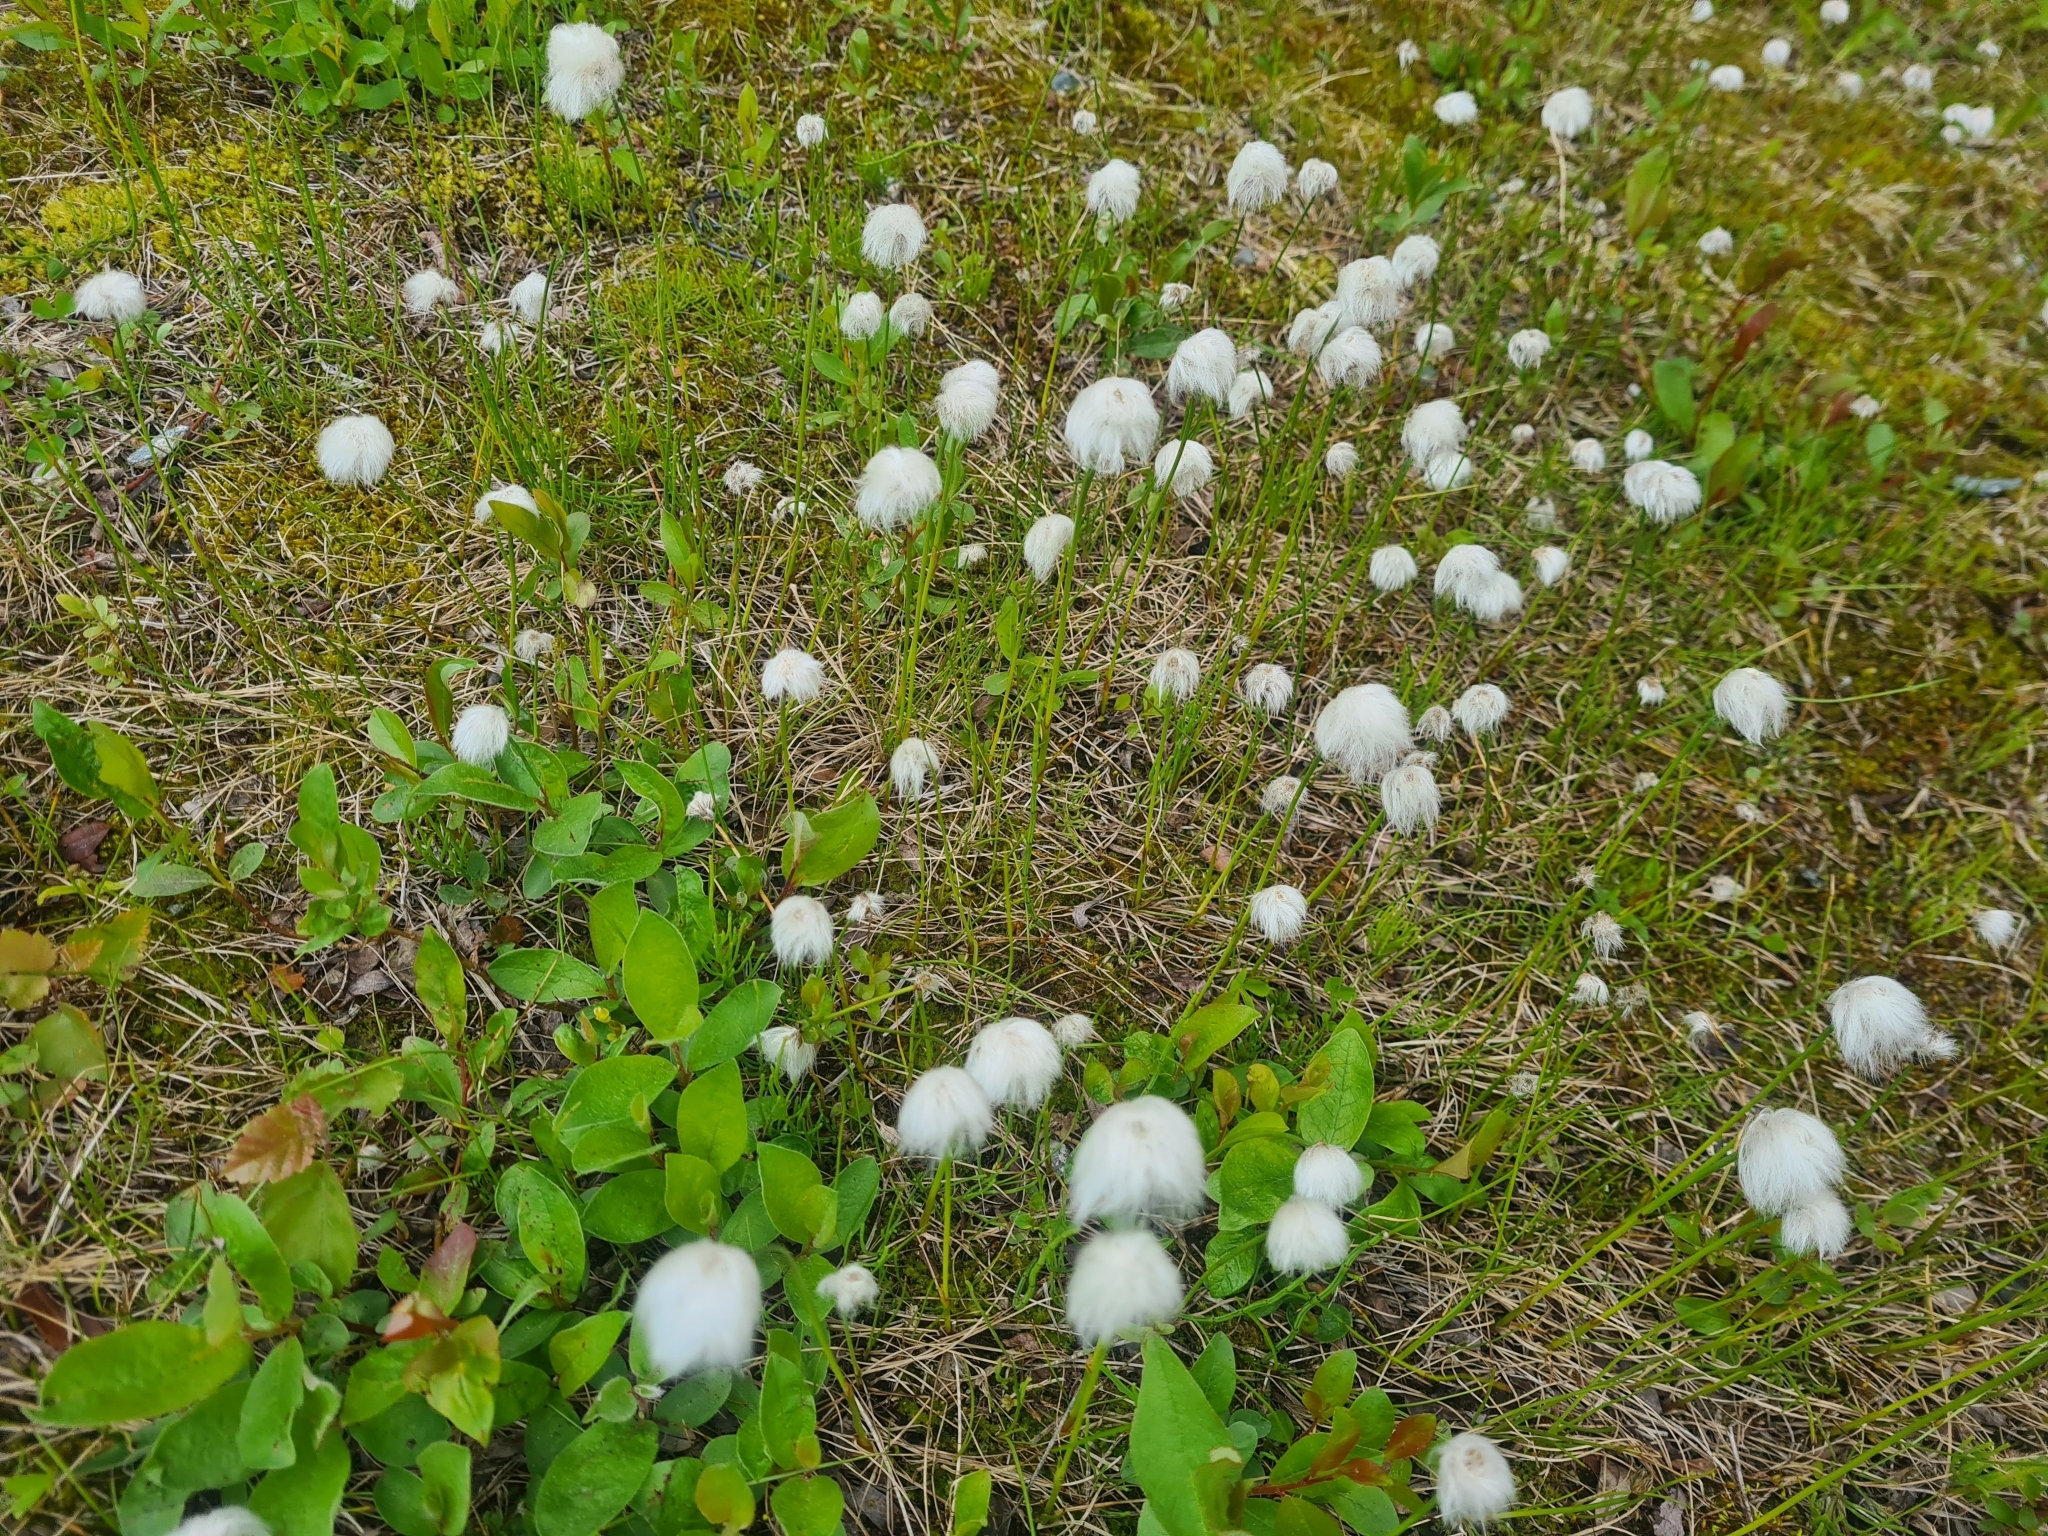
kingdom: Plantae
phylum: Tracheophyta
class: Liliopsida
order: Poales
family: Cyperaceae
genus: Eriophorum
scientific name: Eriophorum scheuchzeri
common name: Scheuchzer's cottongrass
